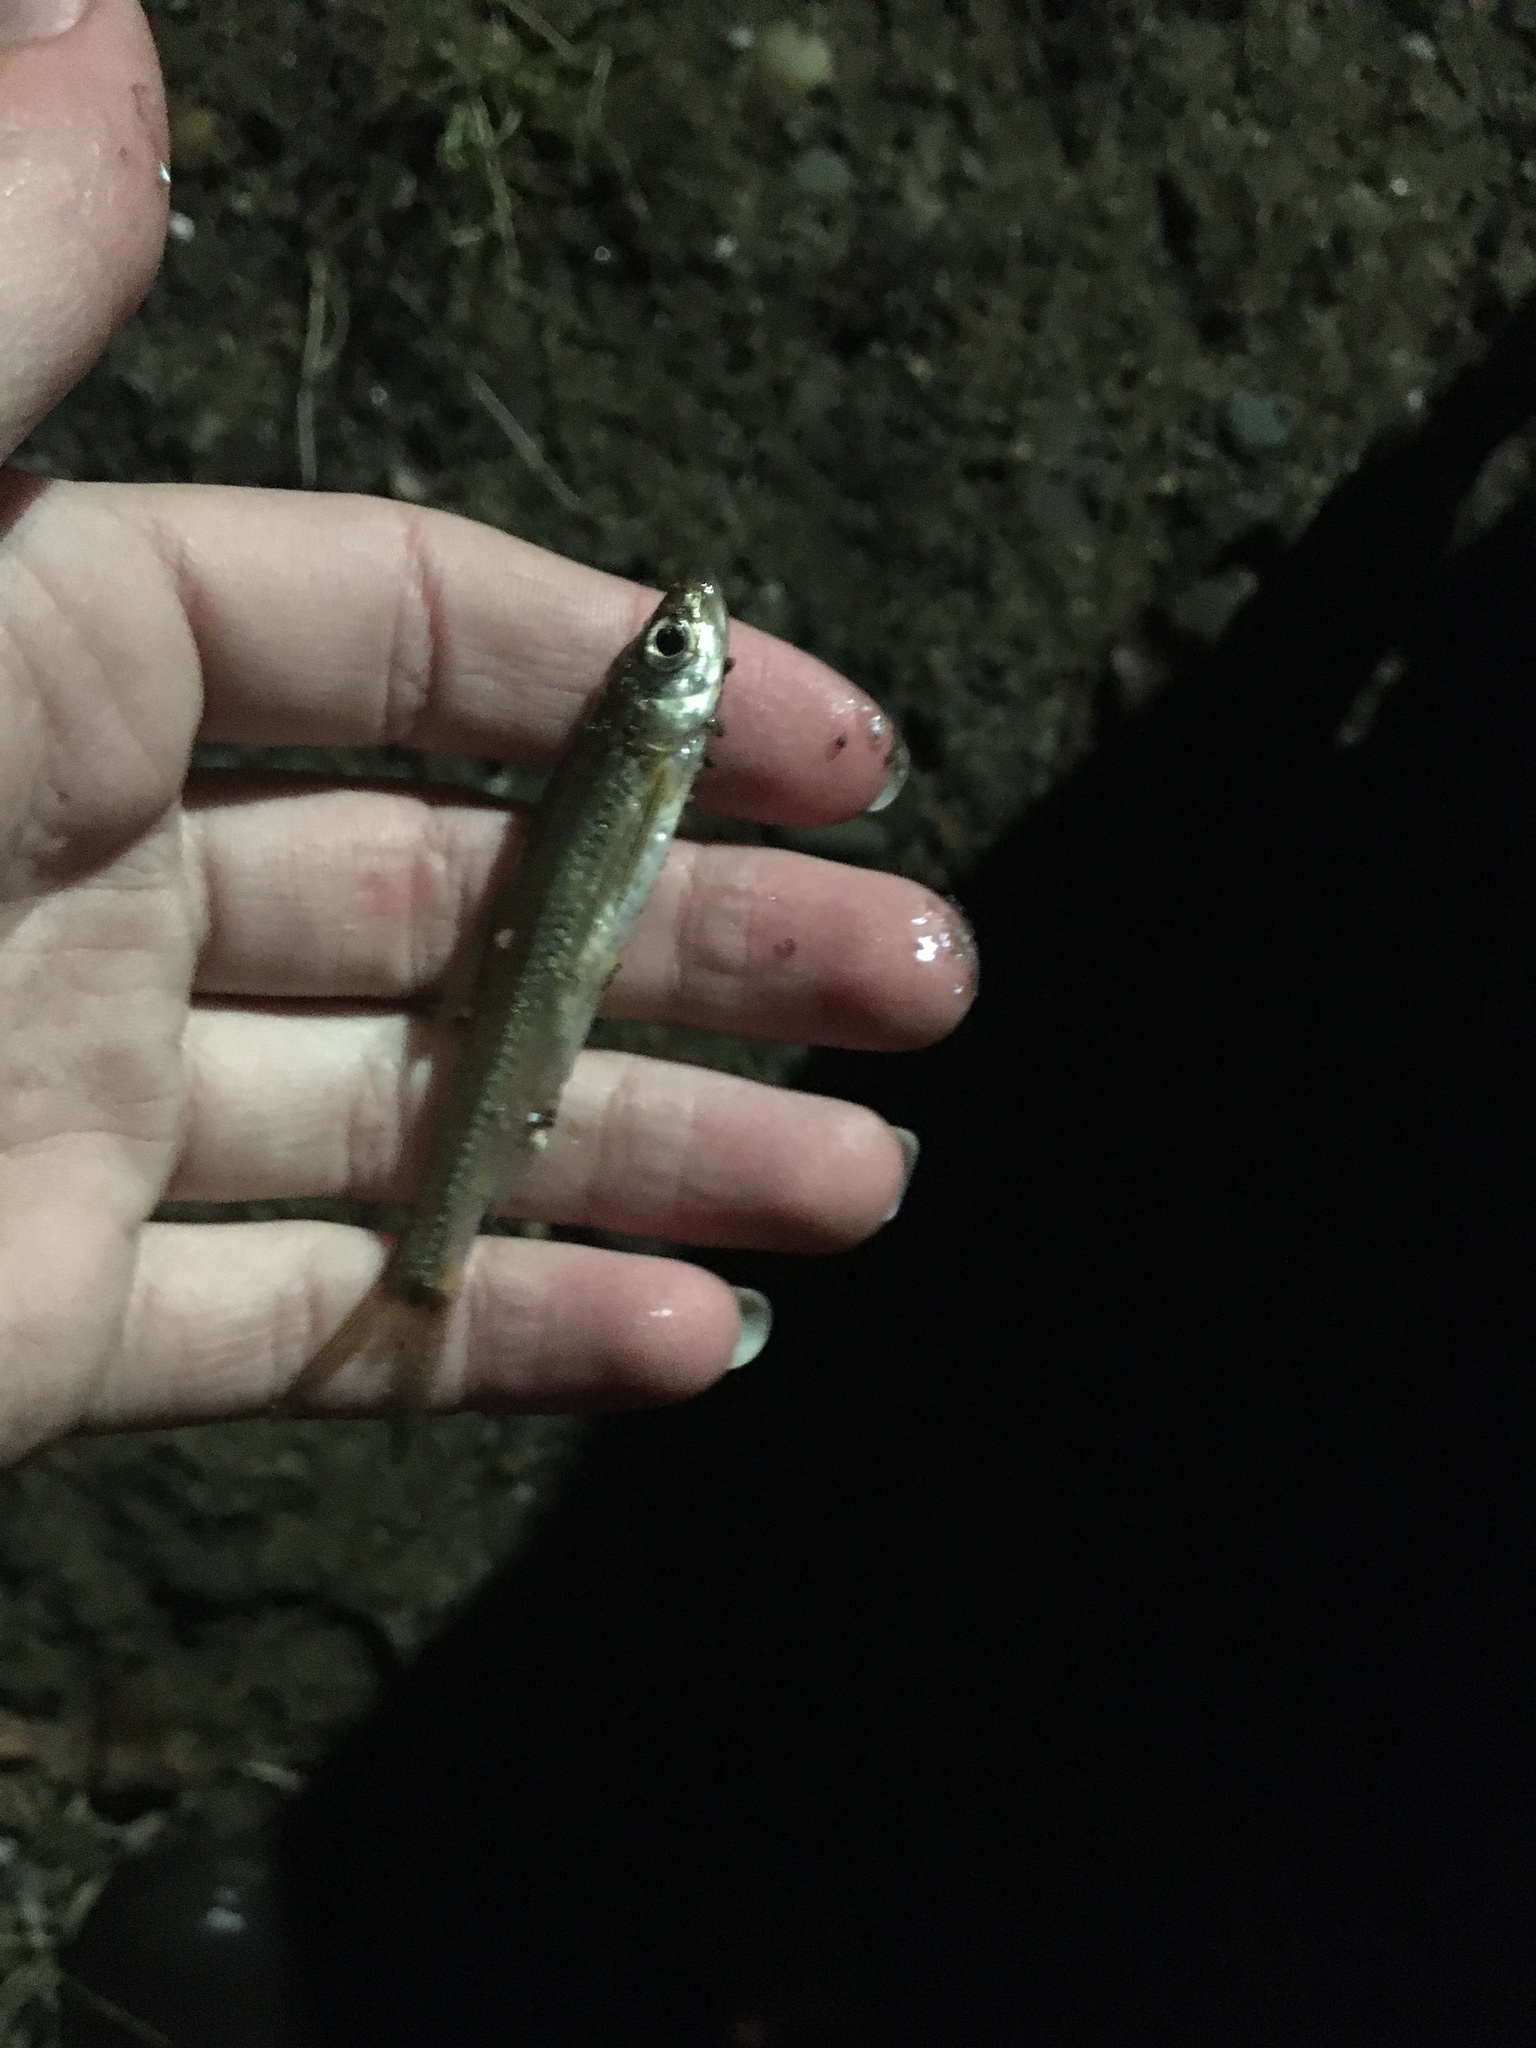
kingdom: Animalia
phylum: Chordata
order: Cypriniformes
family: Cyprinidae
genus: Notropis
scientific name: Notropis
